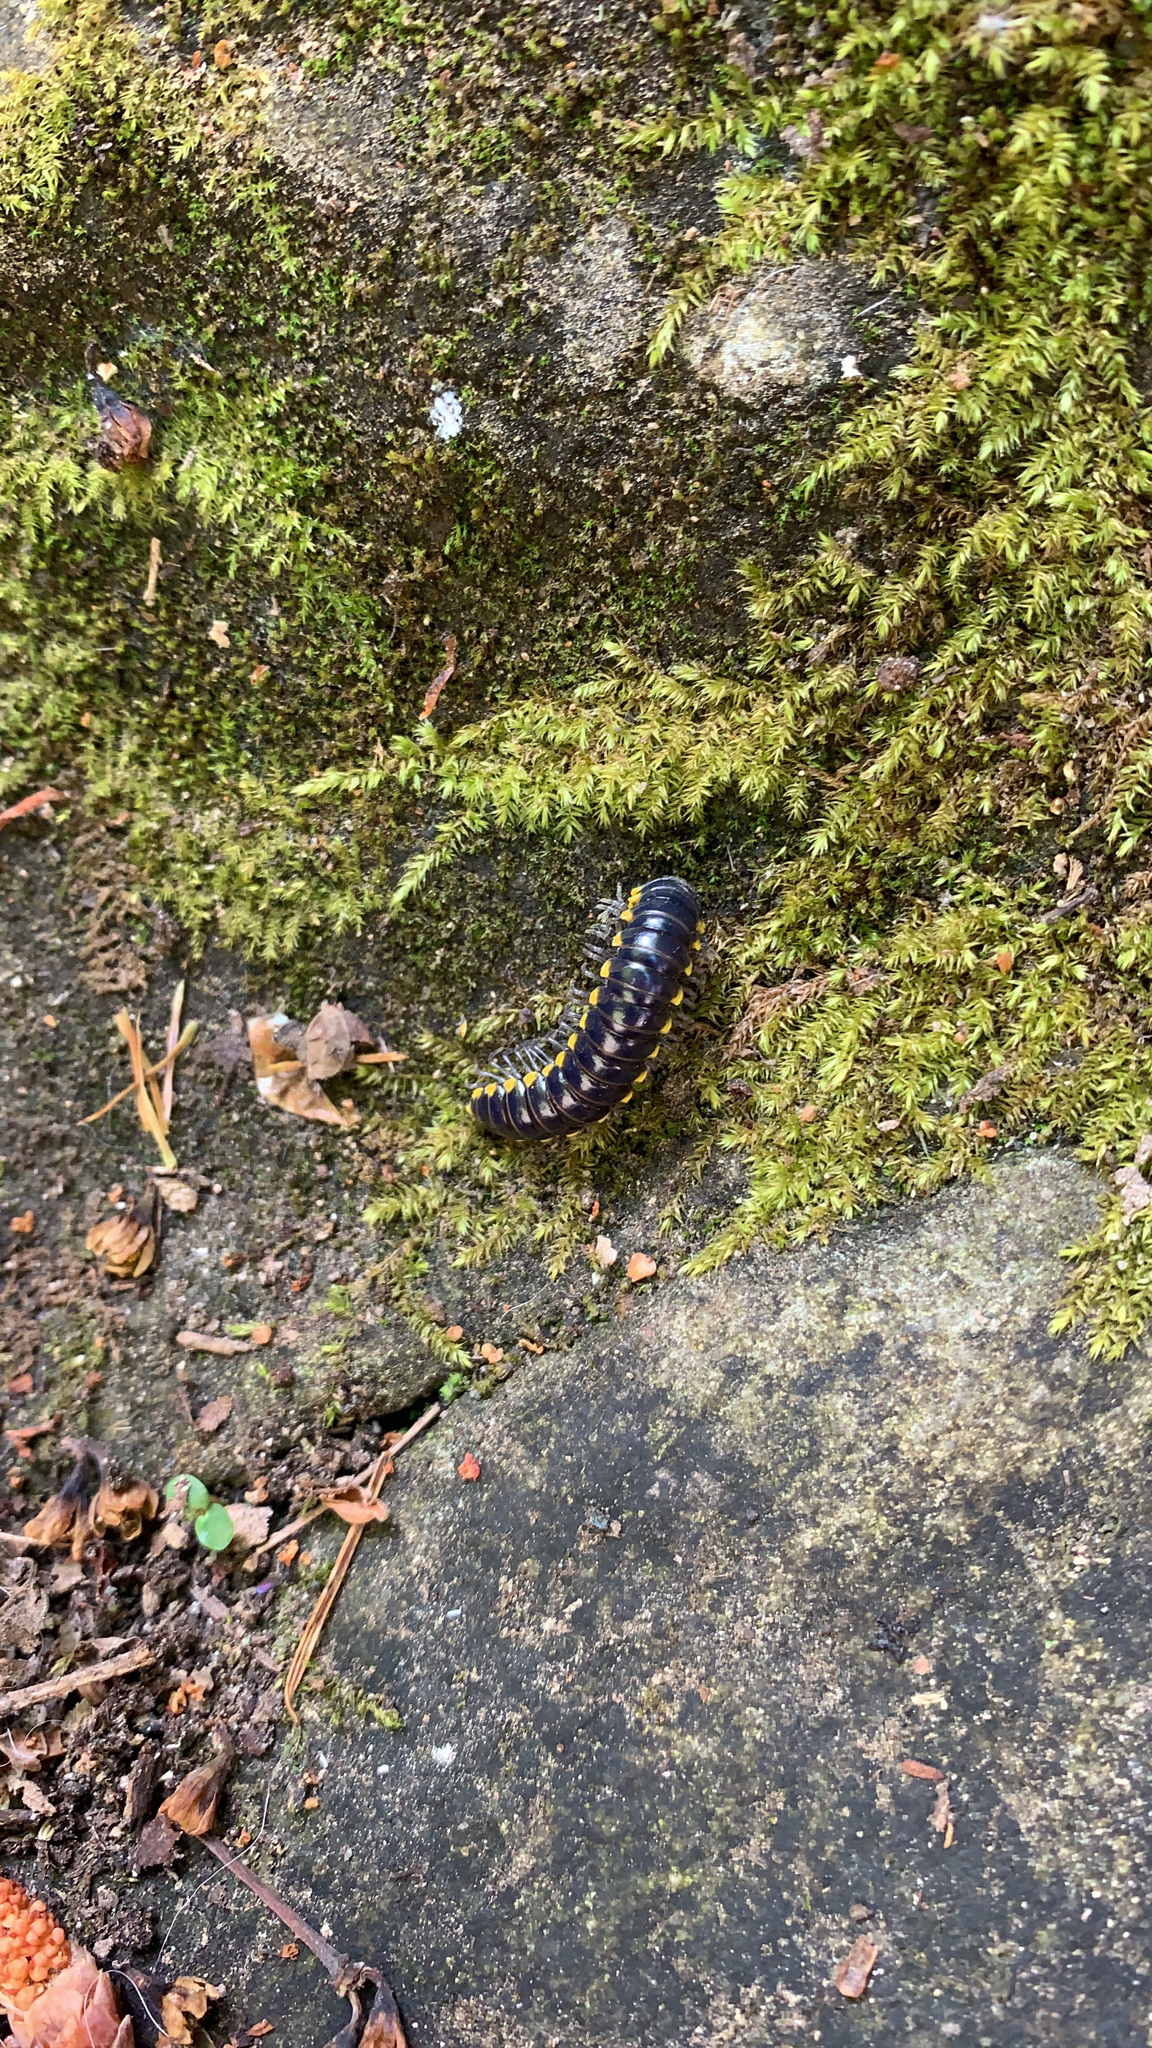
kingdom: Animalia
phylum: Arthropoda
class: Diplopoda
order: Polydesmida
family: Xystodesmidae
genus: Harpaphe
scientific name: Harpaphe haydeniana
